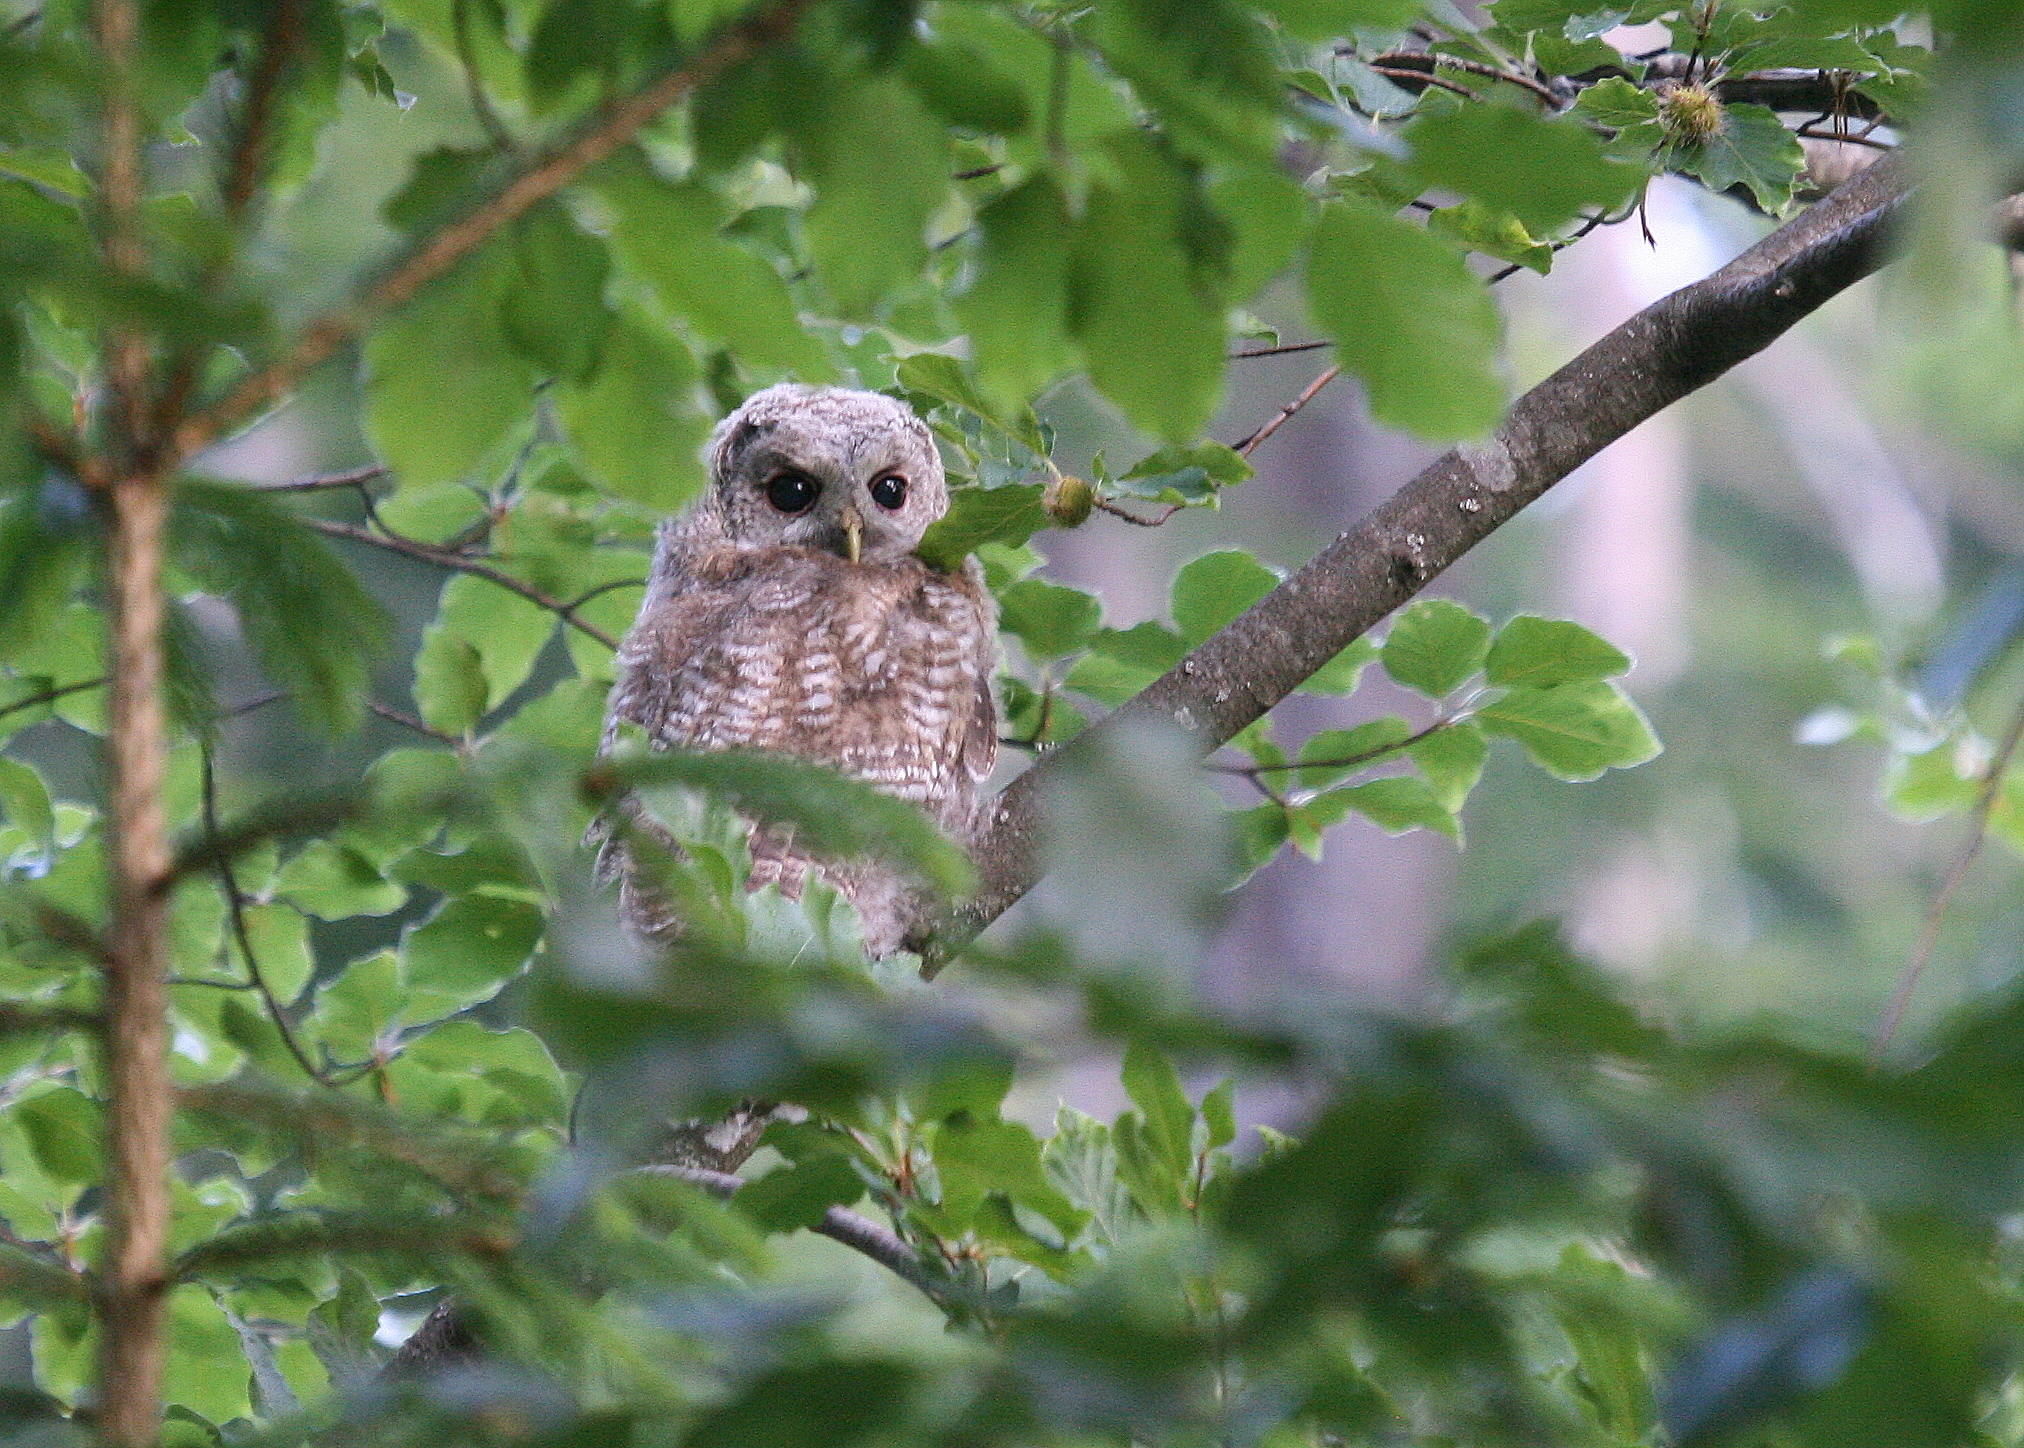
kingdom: Animalia
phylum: Chordata
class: Aves
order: Strigiformes
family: Strigidae
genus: Strix
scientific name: Strix aluco
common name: Tawny owl
